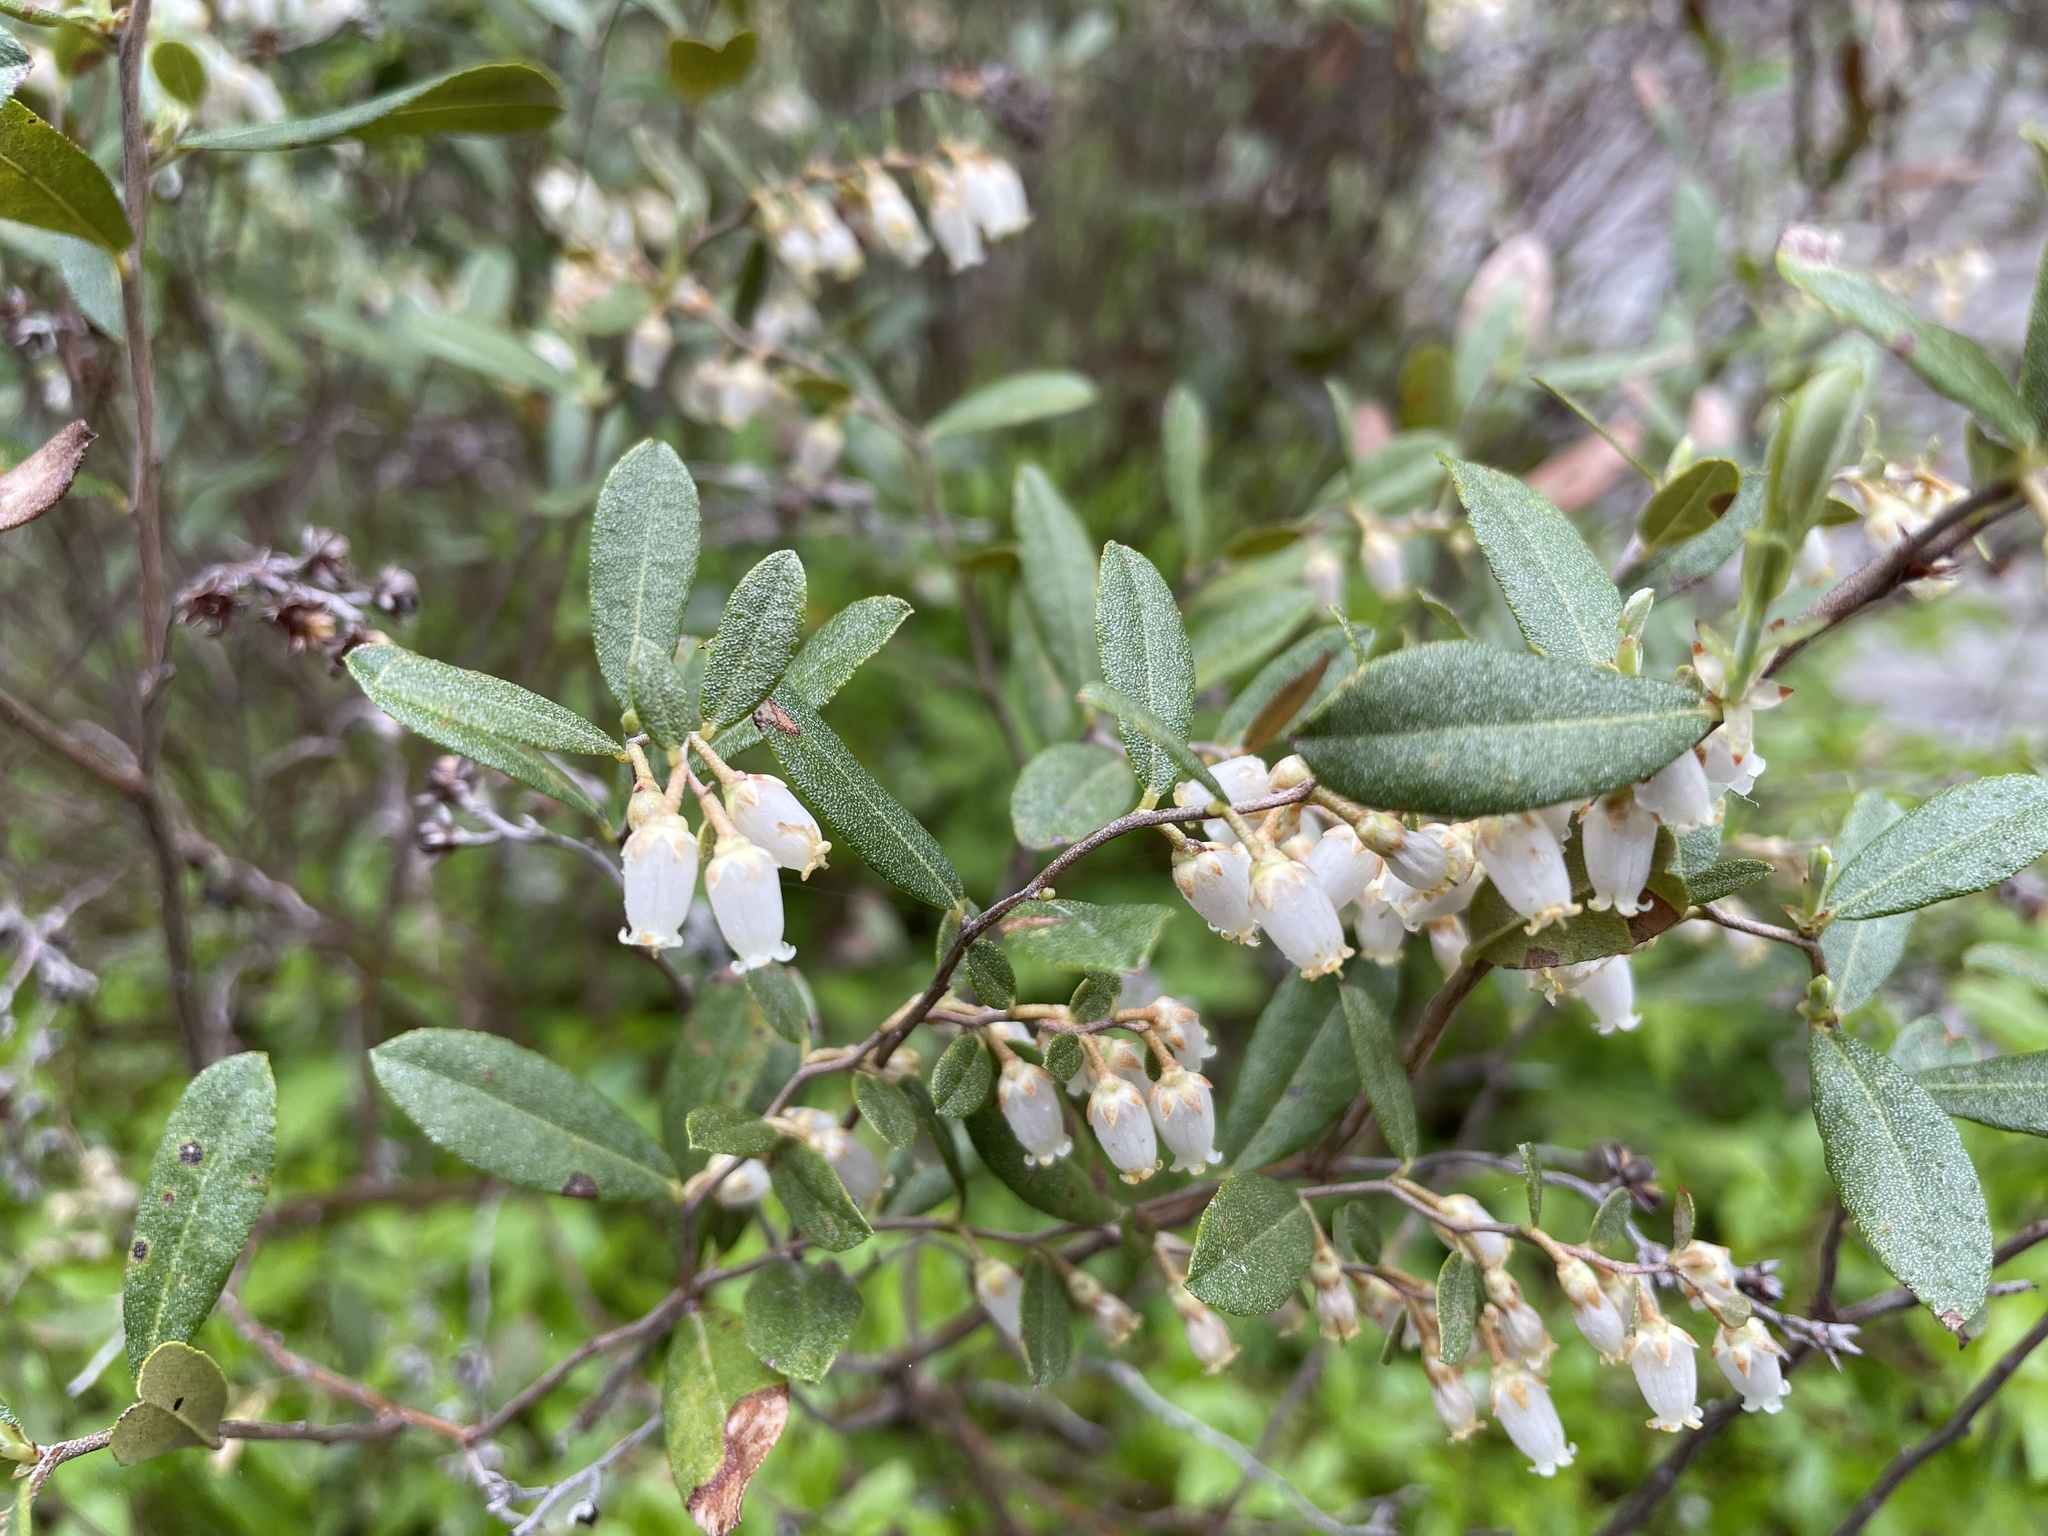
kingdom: Plantae
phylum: Tracheophyta
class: Magnoliopsida
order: Ericales
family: Ericaceae
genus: Chamaedaphne
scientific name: Chamaedaphne calyculata
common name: Leatherleaf
